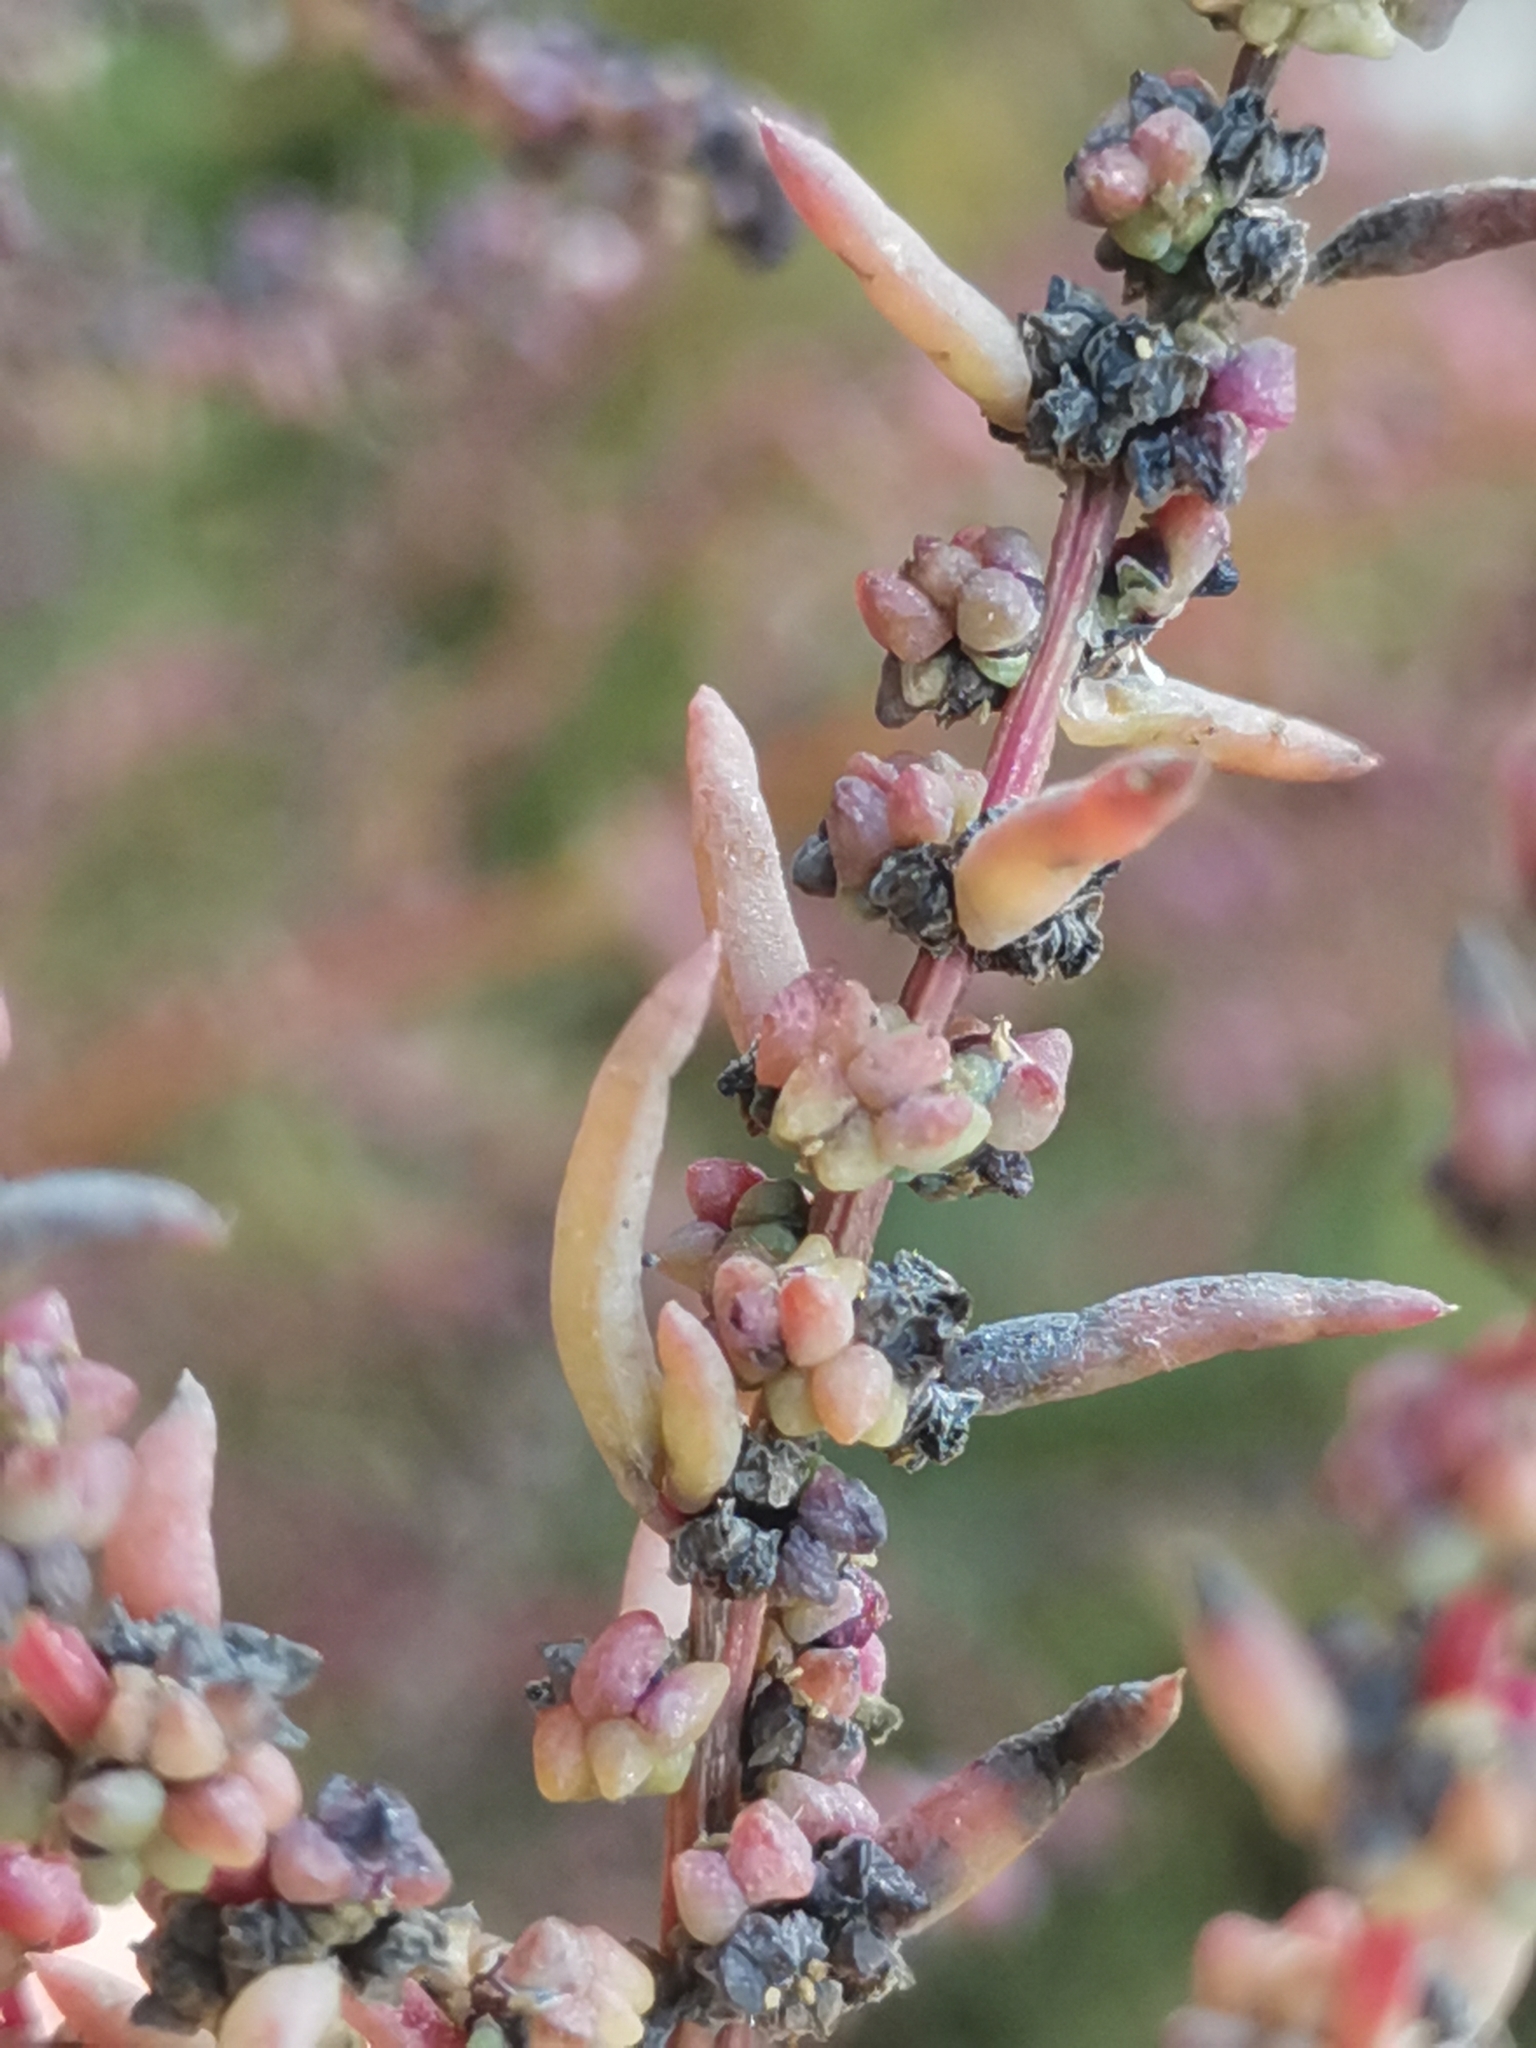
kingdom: Plantae
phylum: Tracheophyta
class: Magnoliopsida
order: Caryophyllales
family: Amaranthaceae
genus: Suaeda
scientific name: Suaeda maritima
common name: Annual sea-blite
